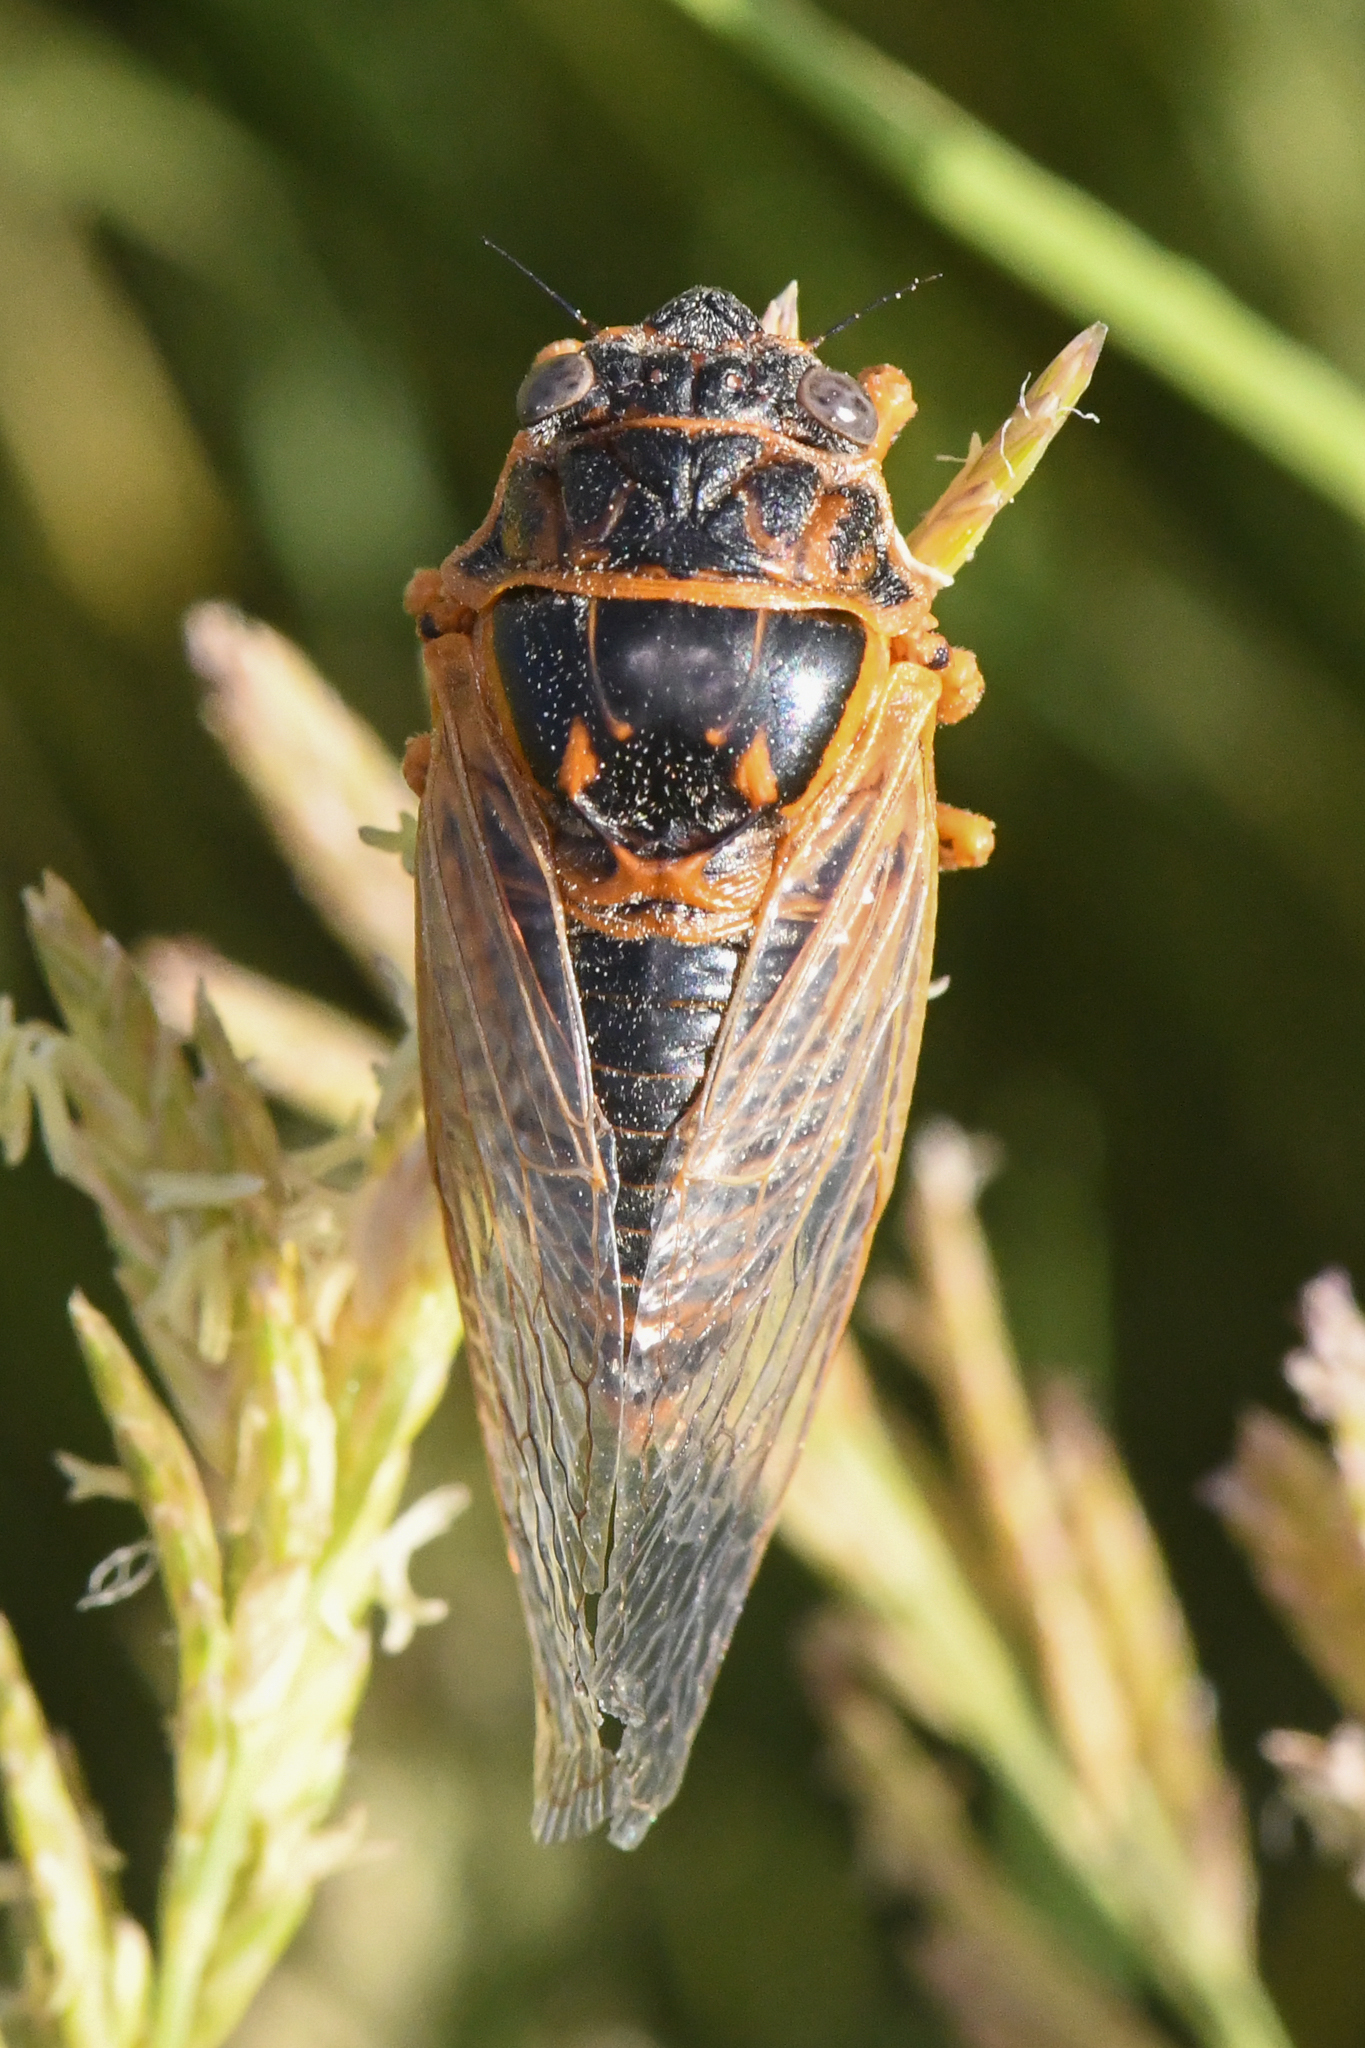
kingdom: Animalia
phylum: Arthropoda
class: Insecta
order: Hemiptera
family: Cicadidae
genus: Okanagana
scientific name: Okanagana wymorei
